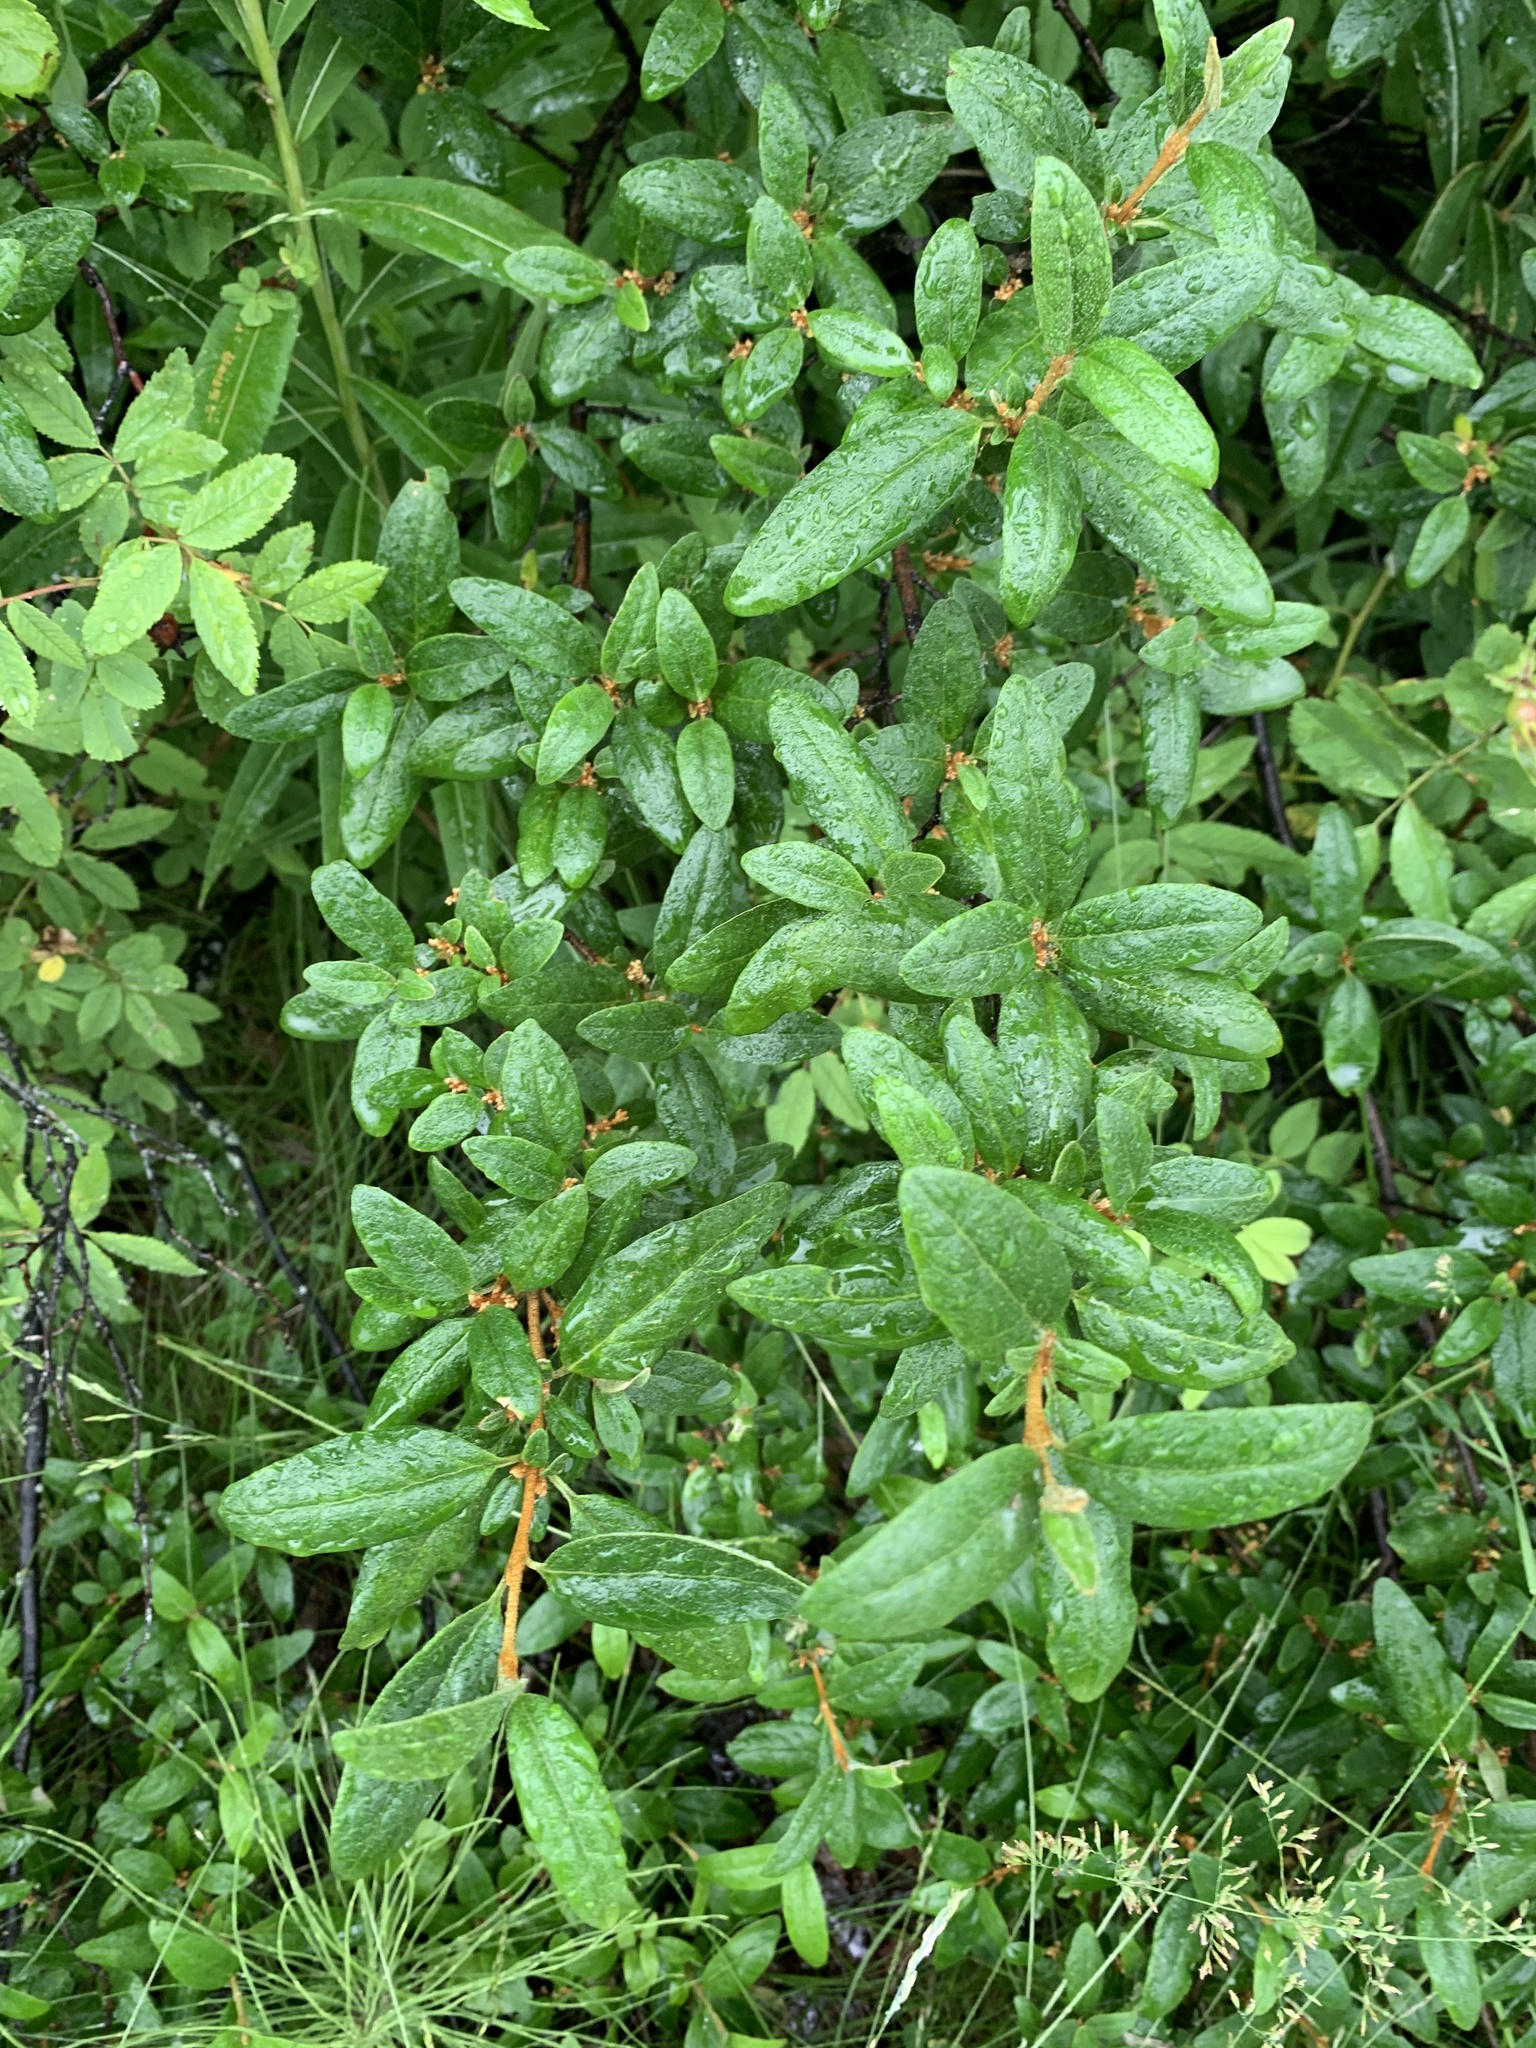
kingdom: Plantae
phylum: Tracheophyta
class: Magnoliopsida
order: Rosales
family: Elaeagnaceae
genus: Shepherdia
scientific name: Shepherdia canadensis
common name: Soapberry
